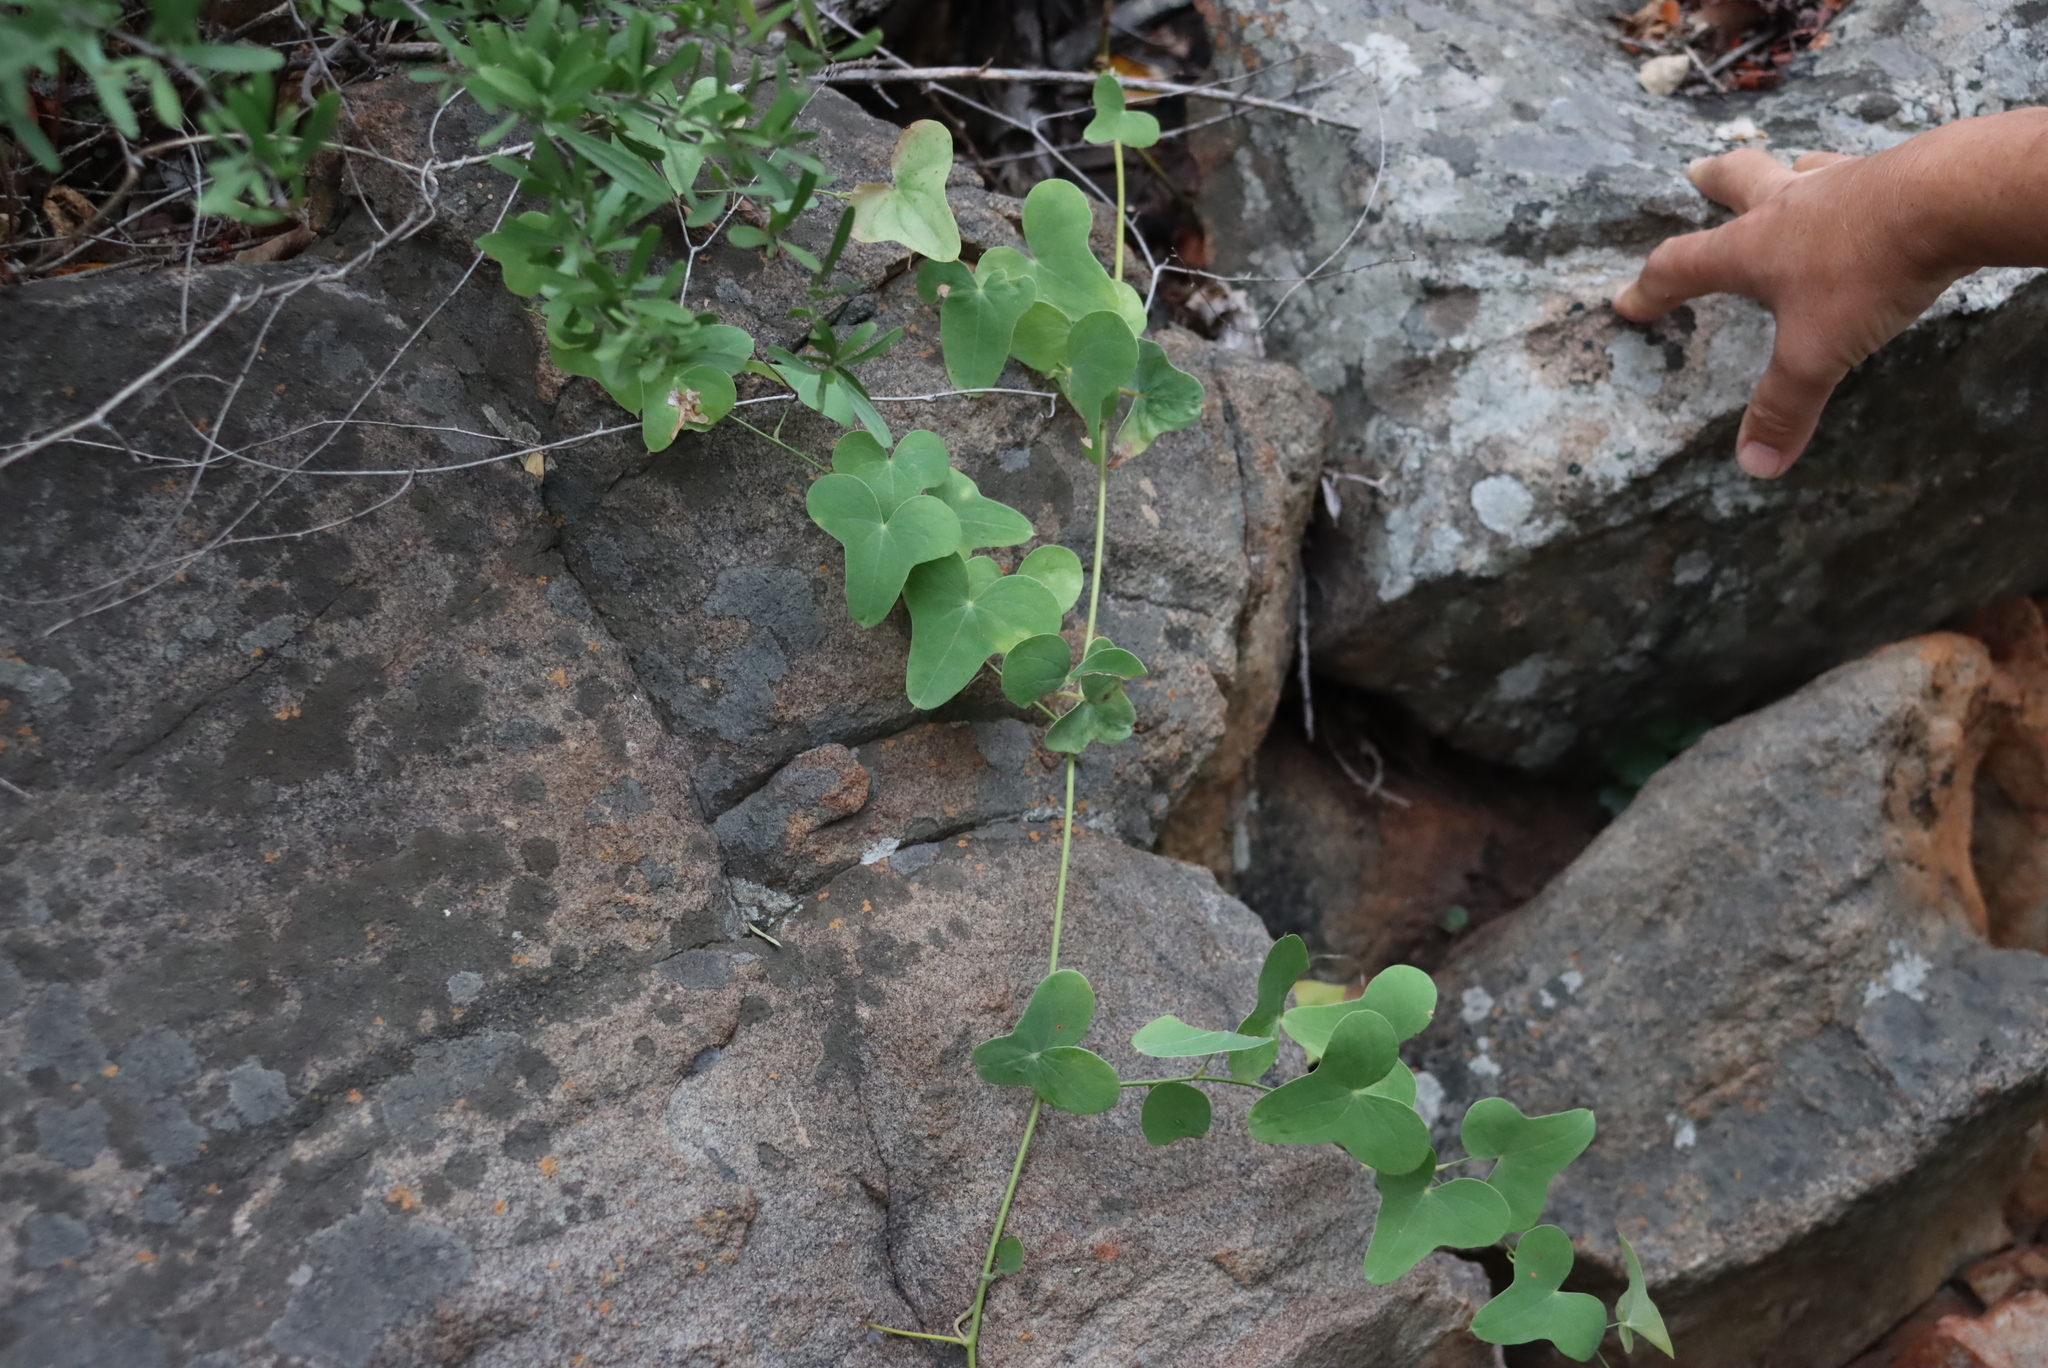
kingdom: Plantae
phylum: Tracheophyta
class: Liliopsida
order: Dioscoreales
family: Dioscoreaceae
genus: Dioscorea
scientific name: Dioscorea sylvatica
